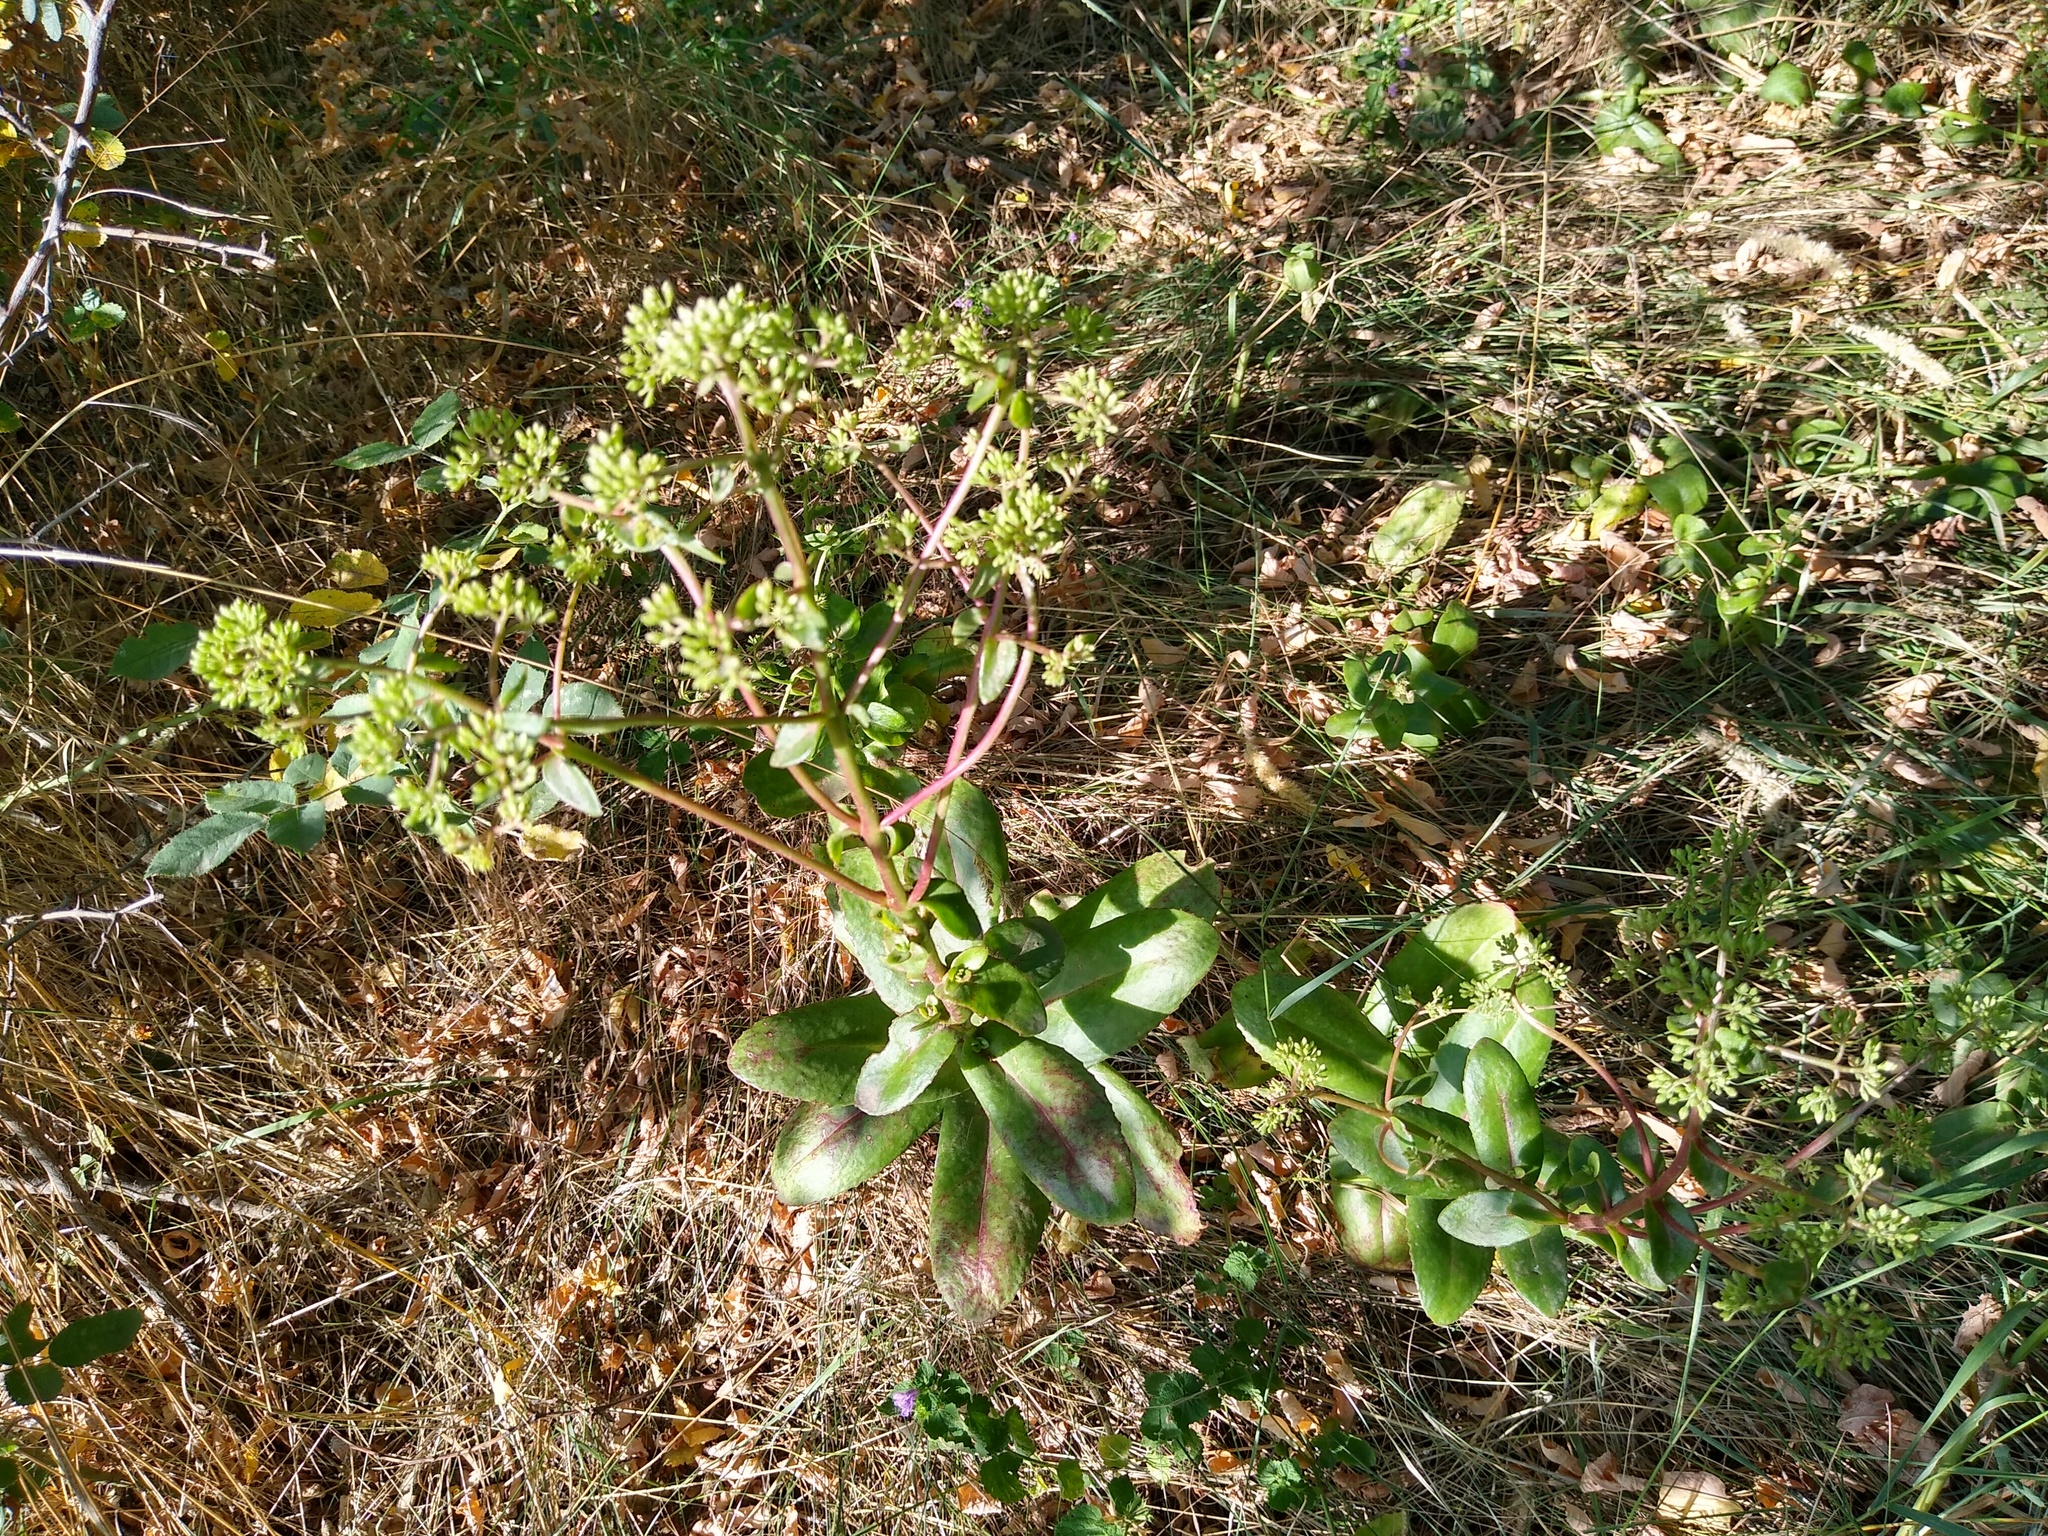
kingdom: Plantae
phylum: Tracheophyta
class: Magnoliopsida
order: Saxifragales
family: Crassulaceae
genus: Hylotelephium
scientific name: Hylotelephium maximum
